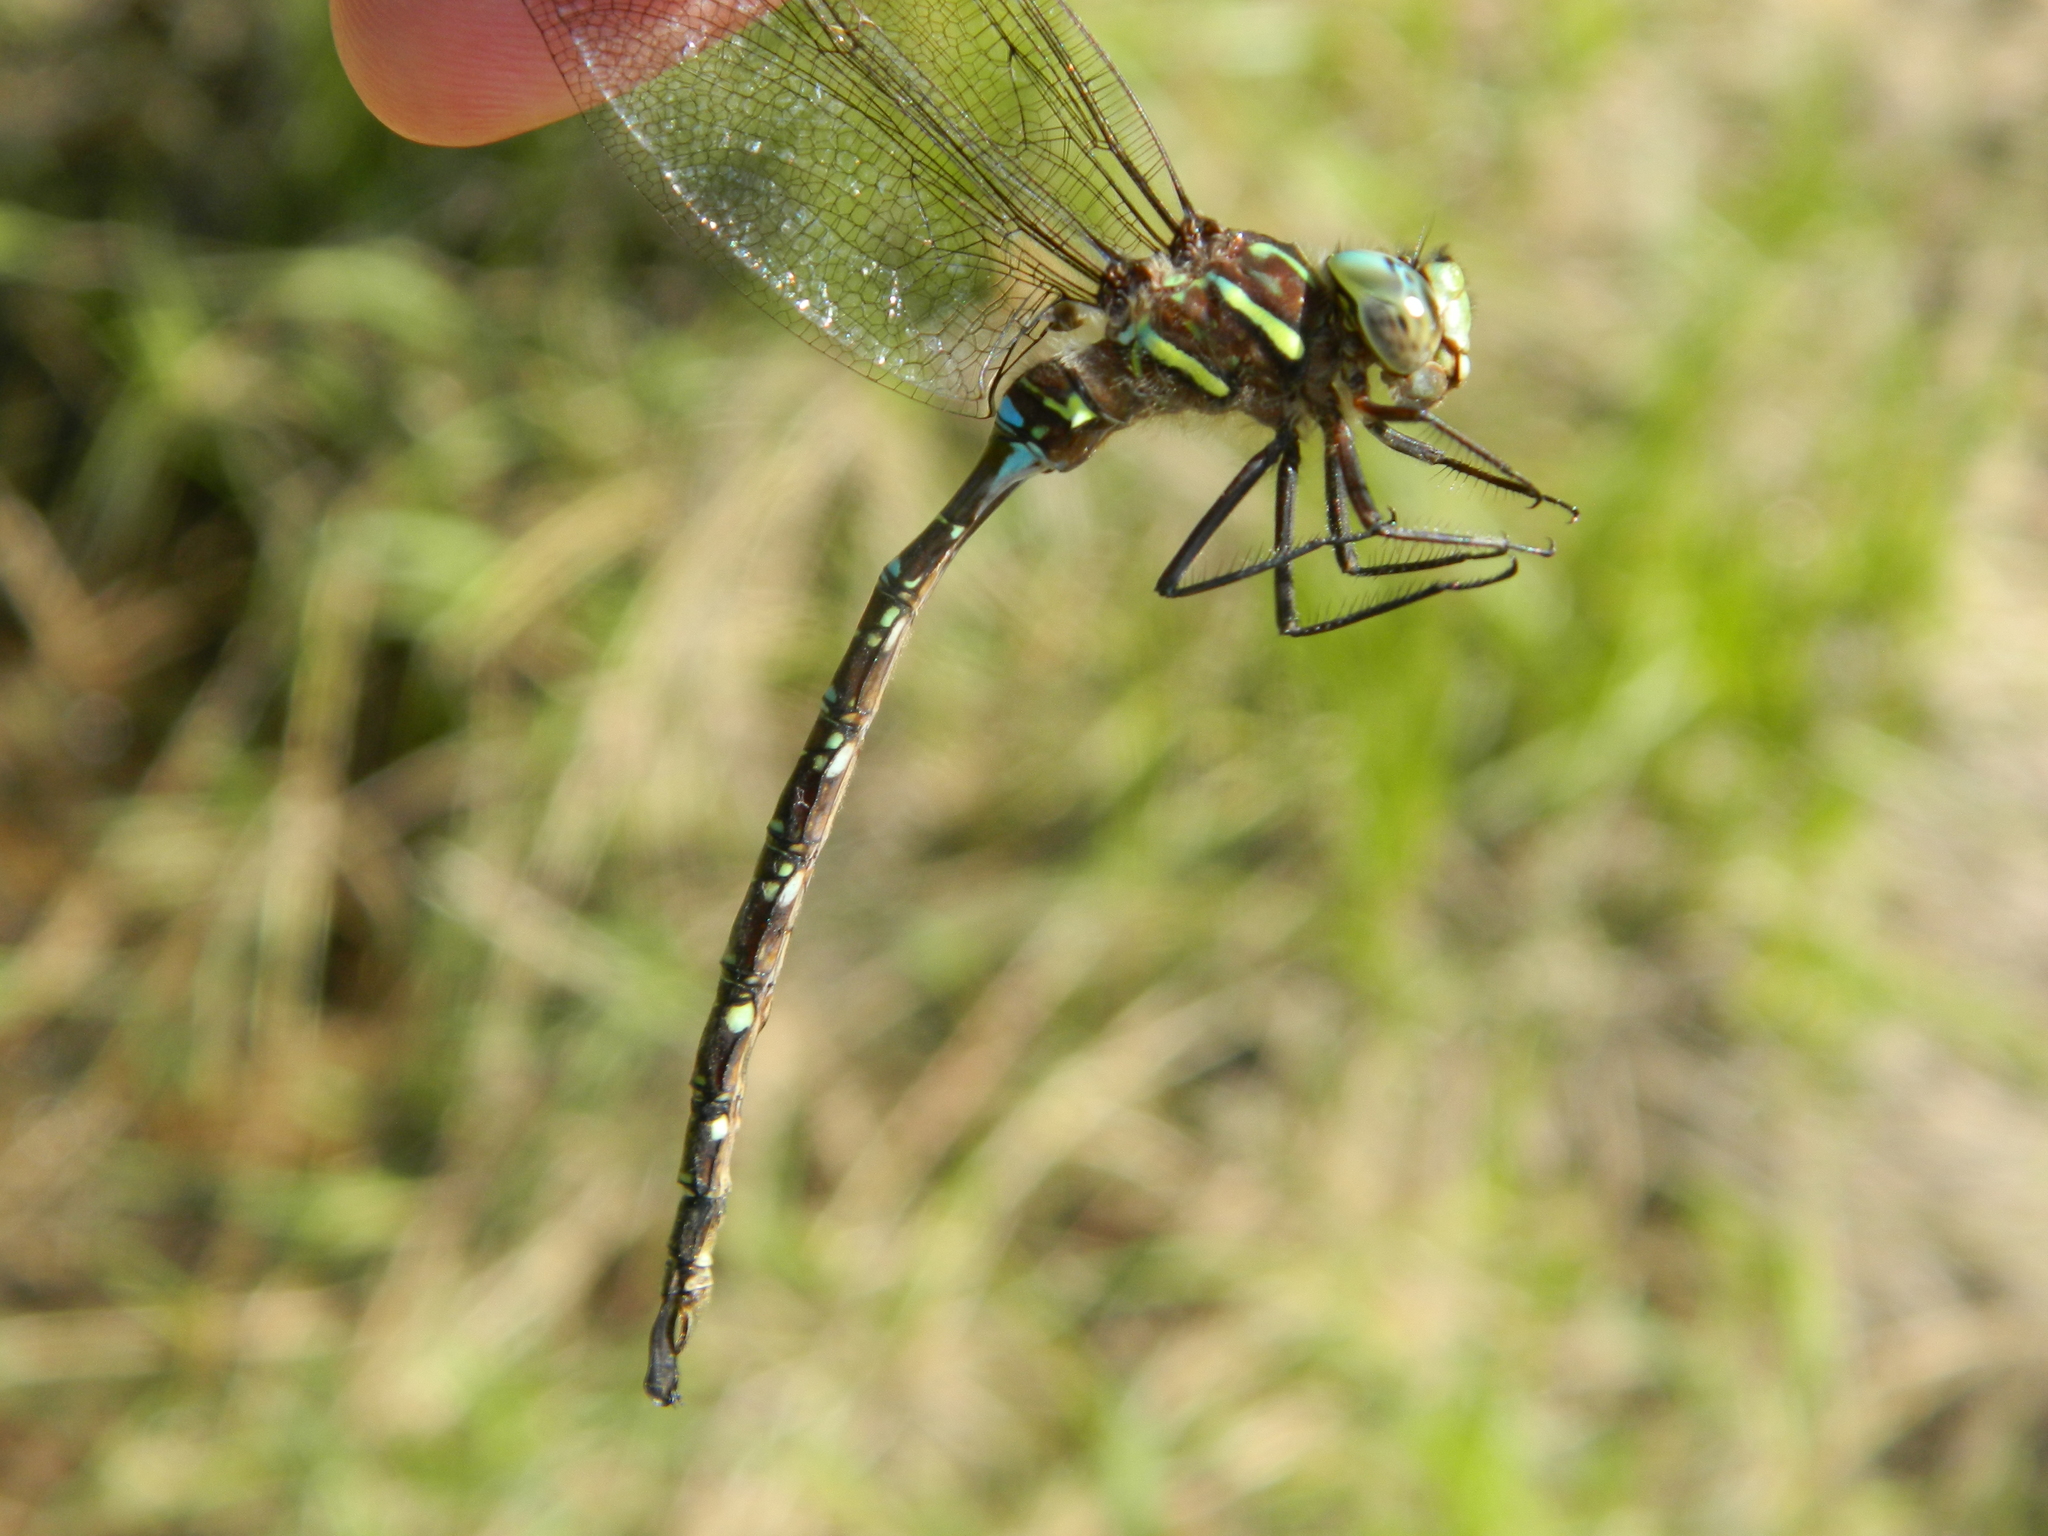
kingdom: Animalia
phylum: Arthropoda
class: Insecta
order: Odonata
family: Aeshnidae
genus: Aeshna
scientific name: Aeshna umbrosa
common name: Shadow darner
